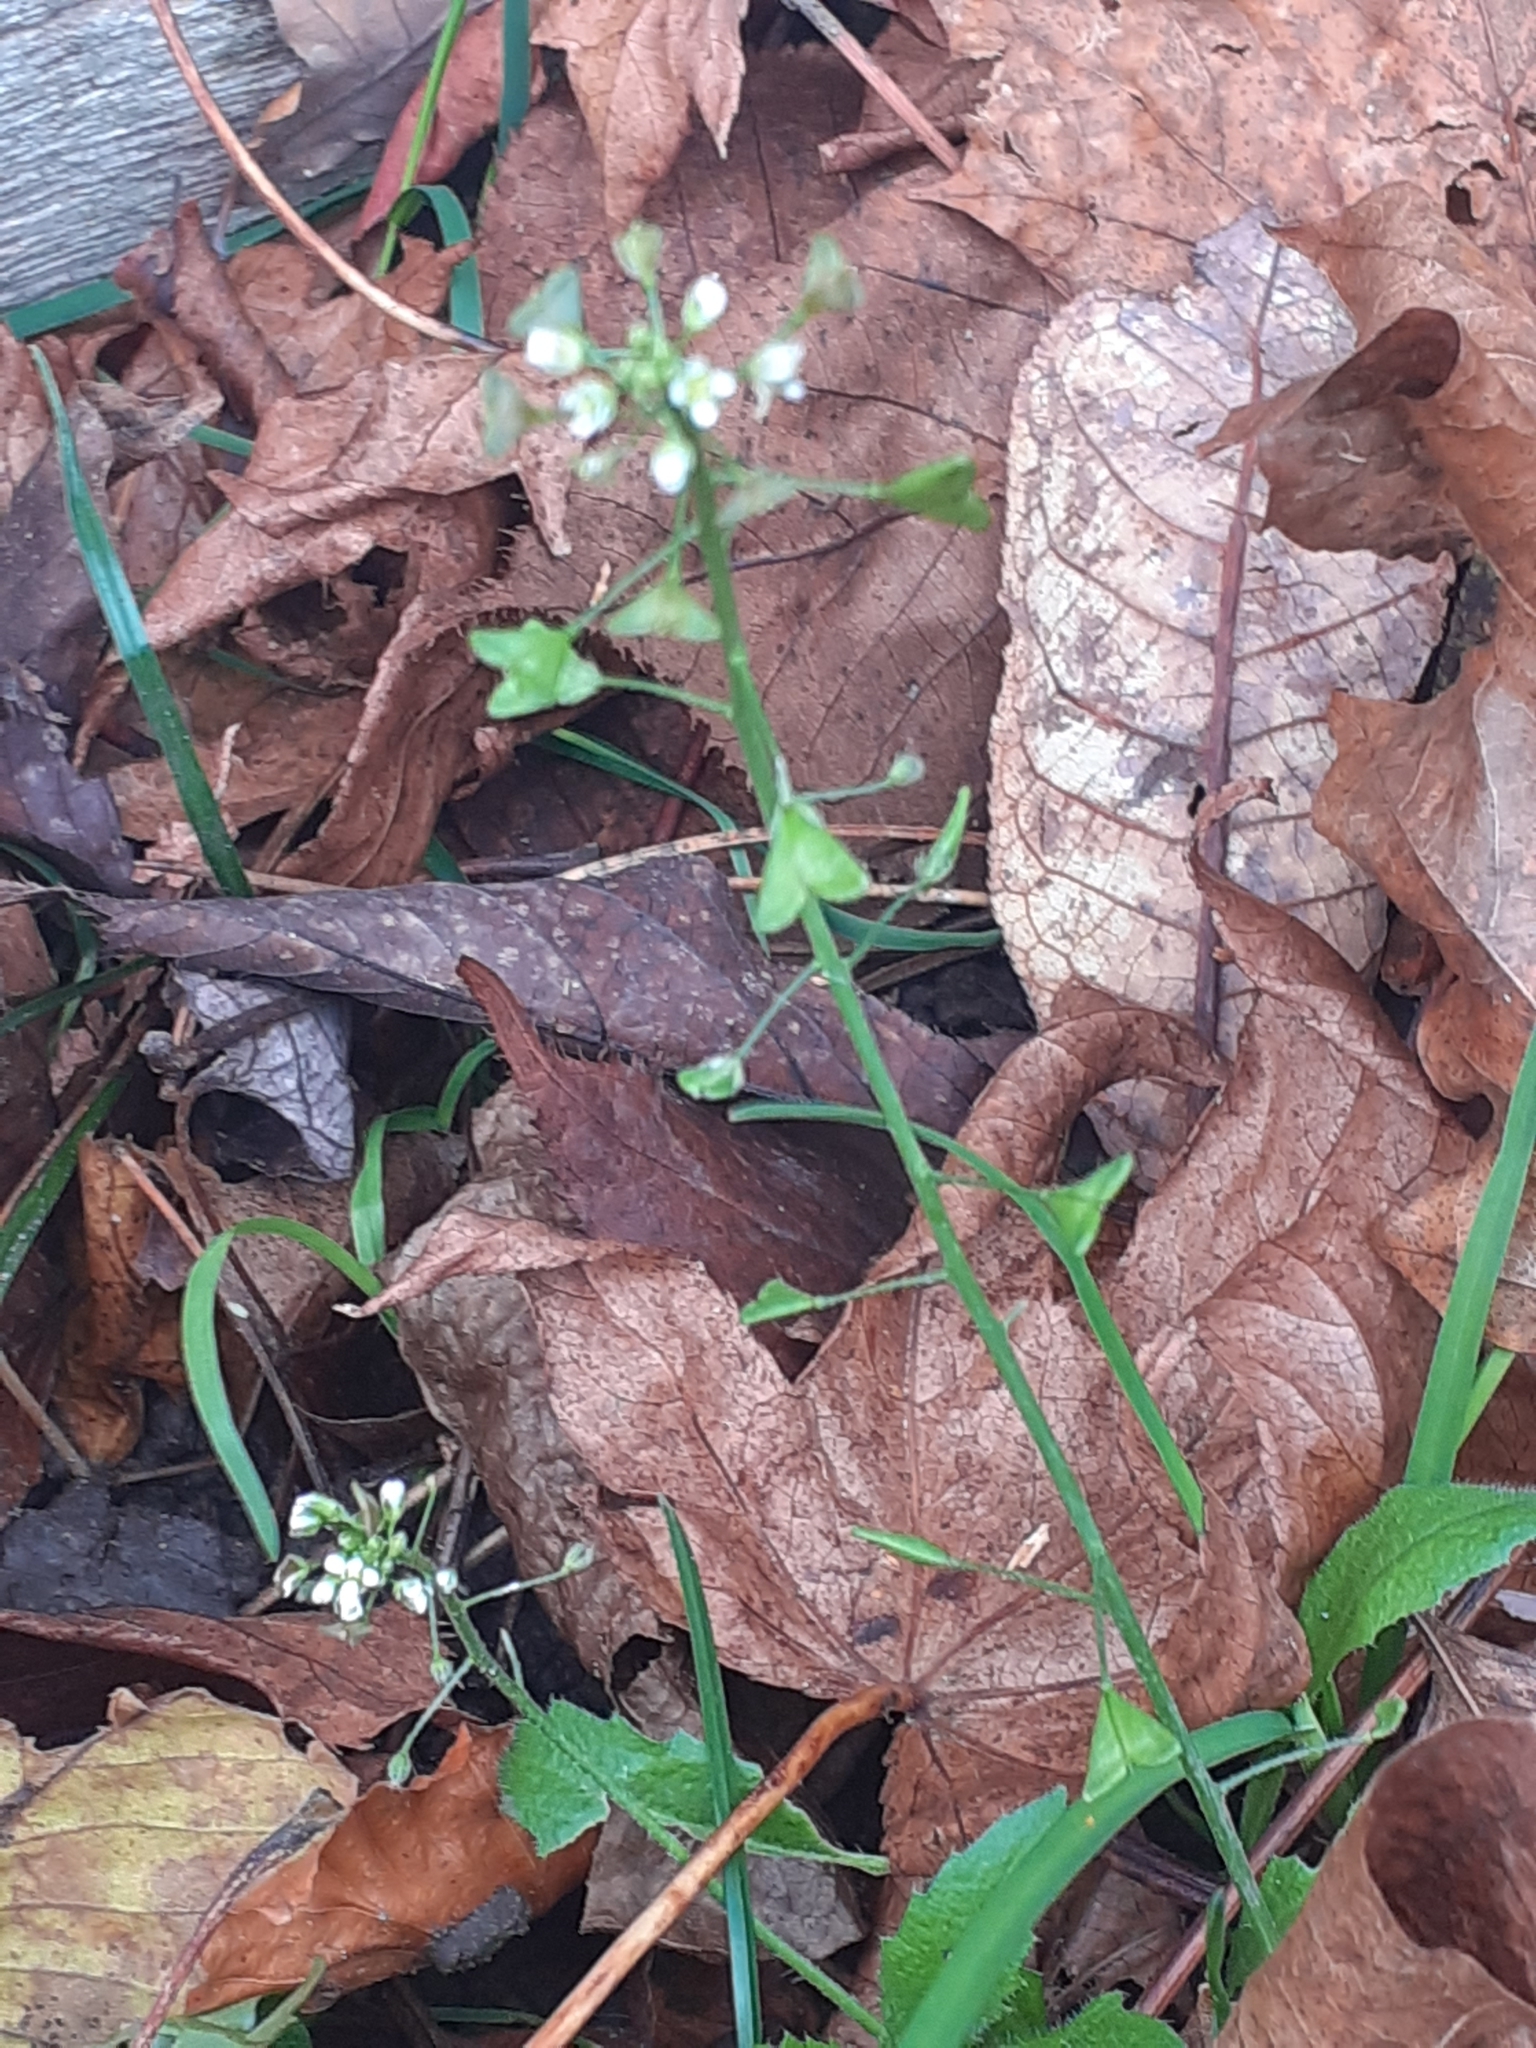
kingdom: Plantae
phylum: Tracheophyta
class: Magnoliopsida
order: Brassicales
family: Brassicaceae
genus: Capsella
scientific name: Capsella bursa-pastoris
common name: Shepherd's purse
